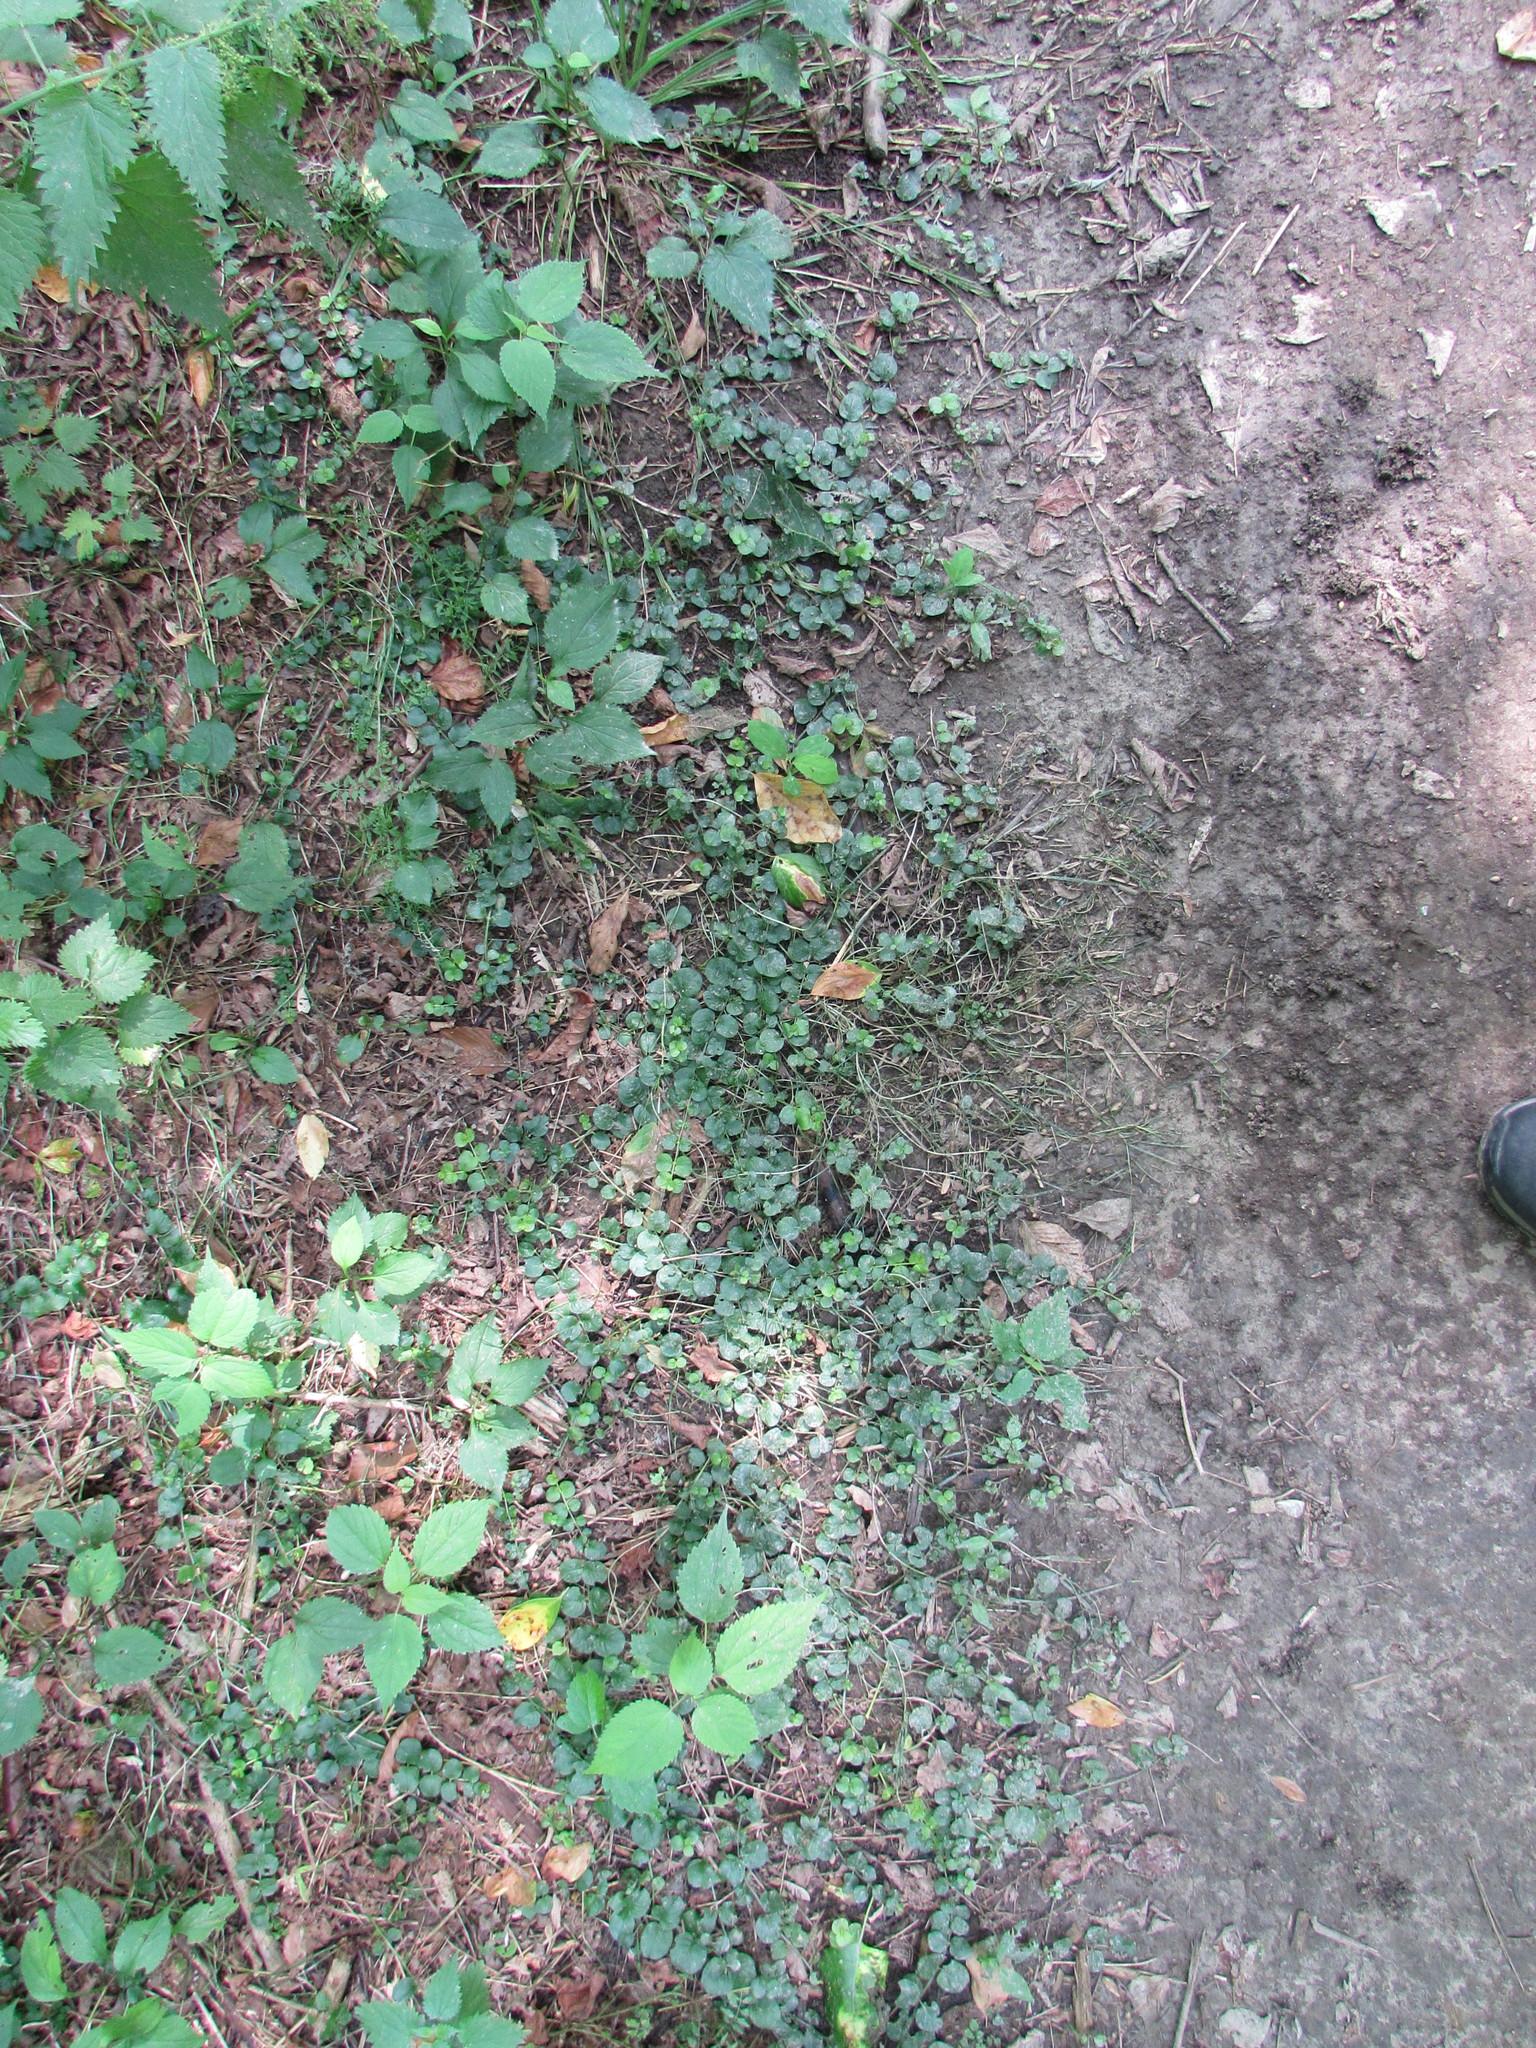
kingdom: Plantae
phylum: Tracheophyta
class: Magnoliopsida
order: Ericales
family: Primulaceae
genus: Lysimachia
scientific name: Lysimachia nummularia
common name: Moneywort
